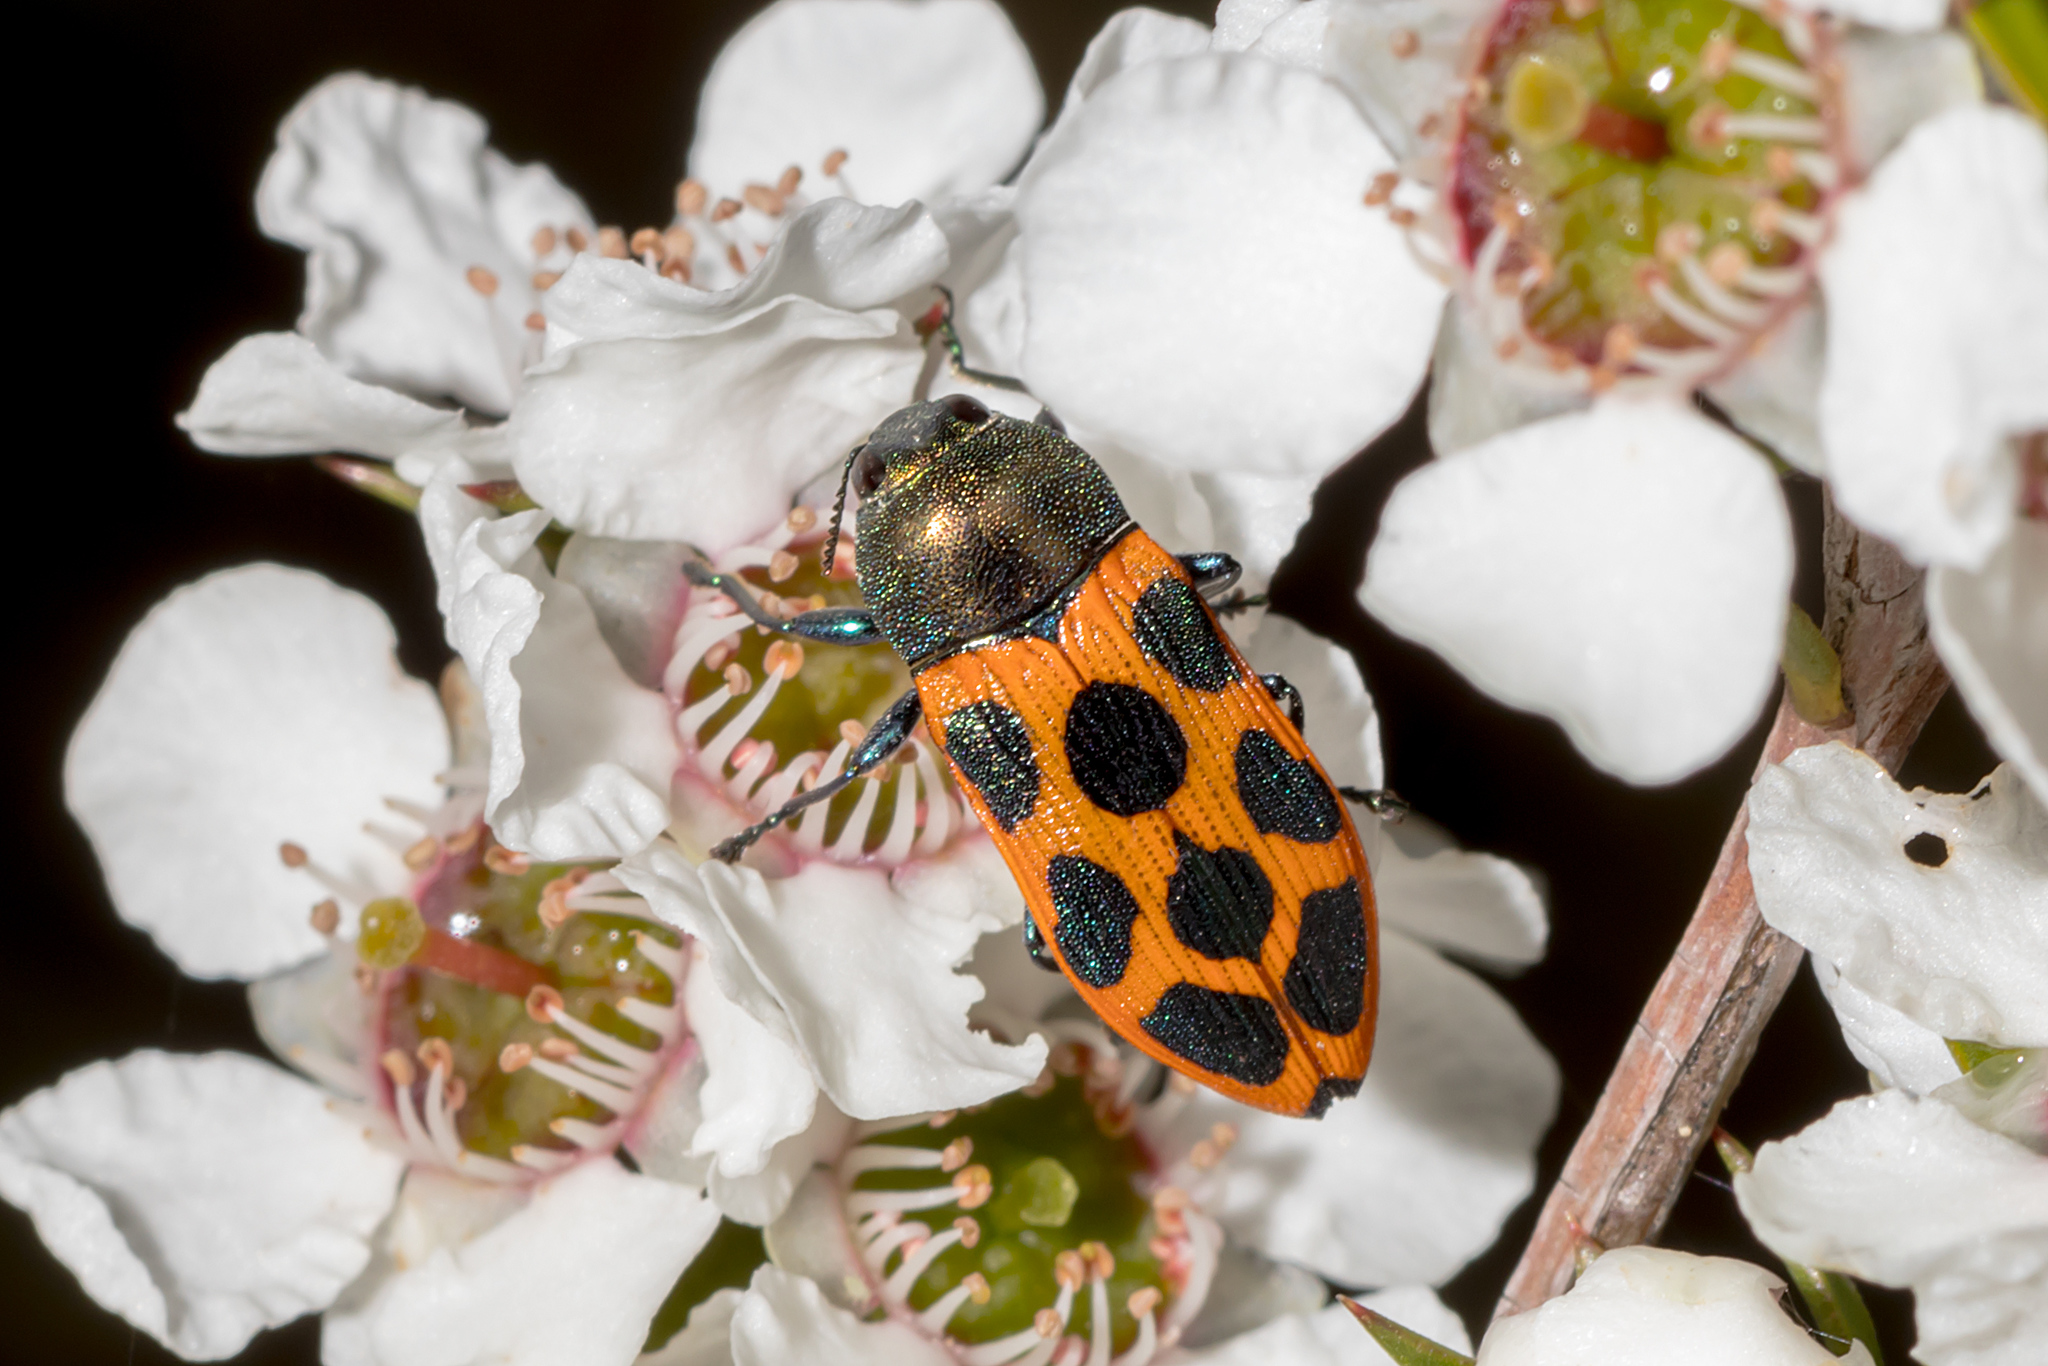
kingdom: Animalia
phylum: Arthropoda
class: Insecta
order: Coleoptera
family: Buprestidae
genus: Castiarina
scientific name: Castiarina octomaculata
